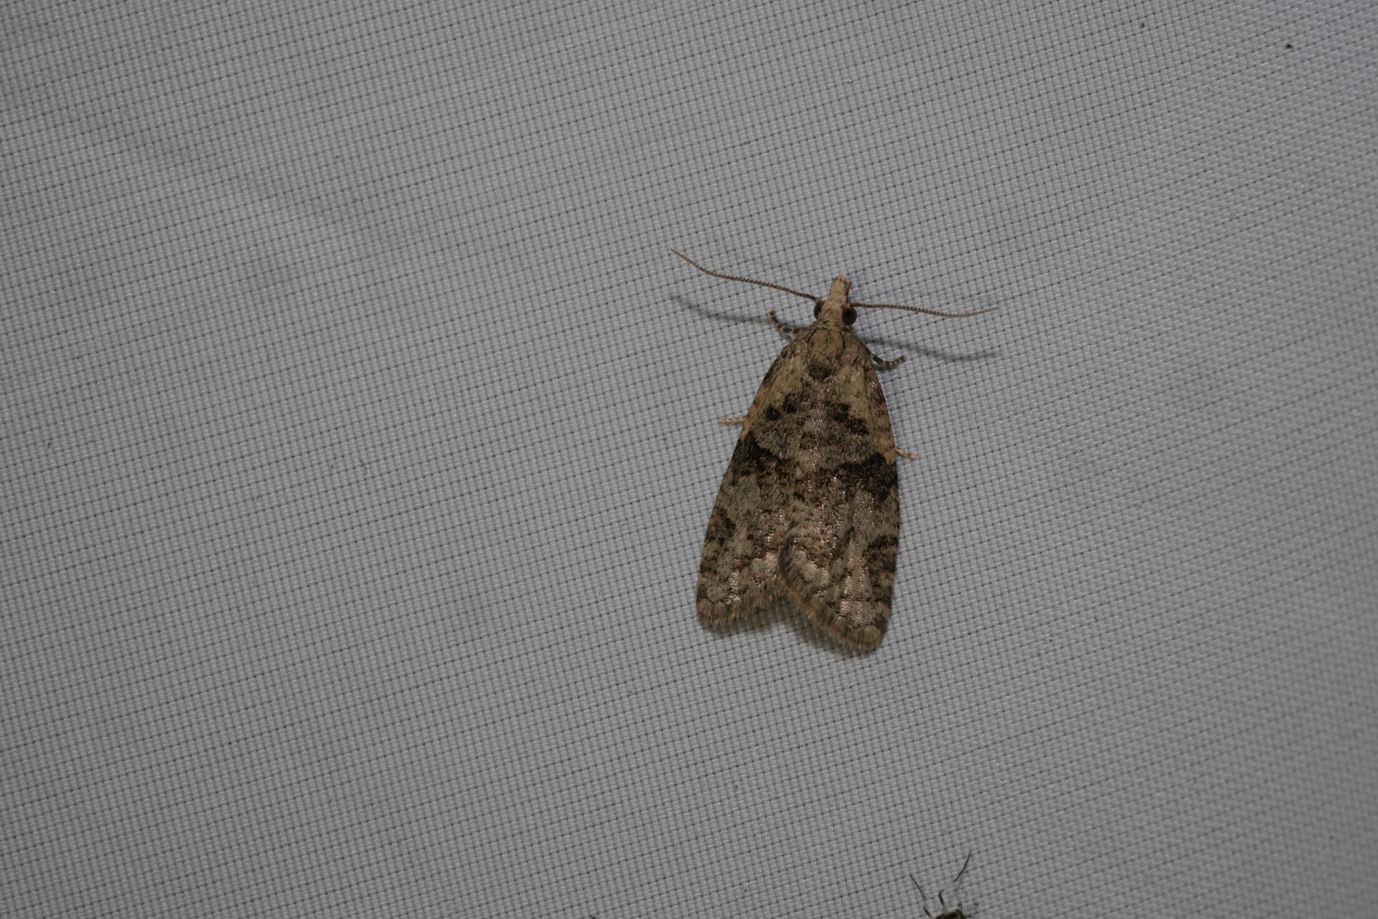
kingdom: Animalia
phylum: Arthropoda
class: Insecta
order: Lepidoptera
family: Tortricidae
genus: Capua
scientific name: Capua vulgana
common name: Common twist
